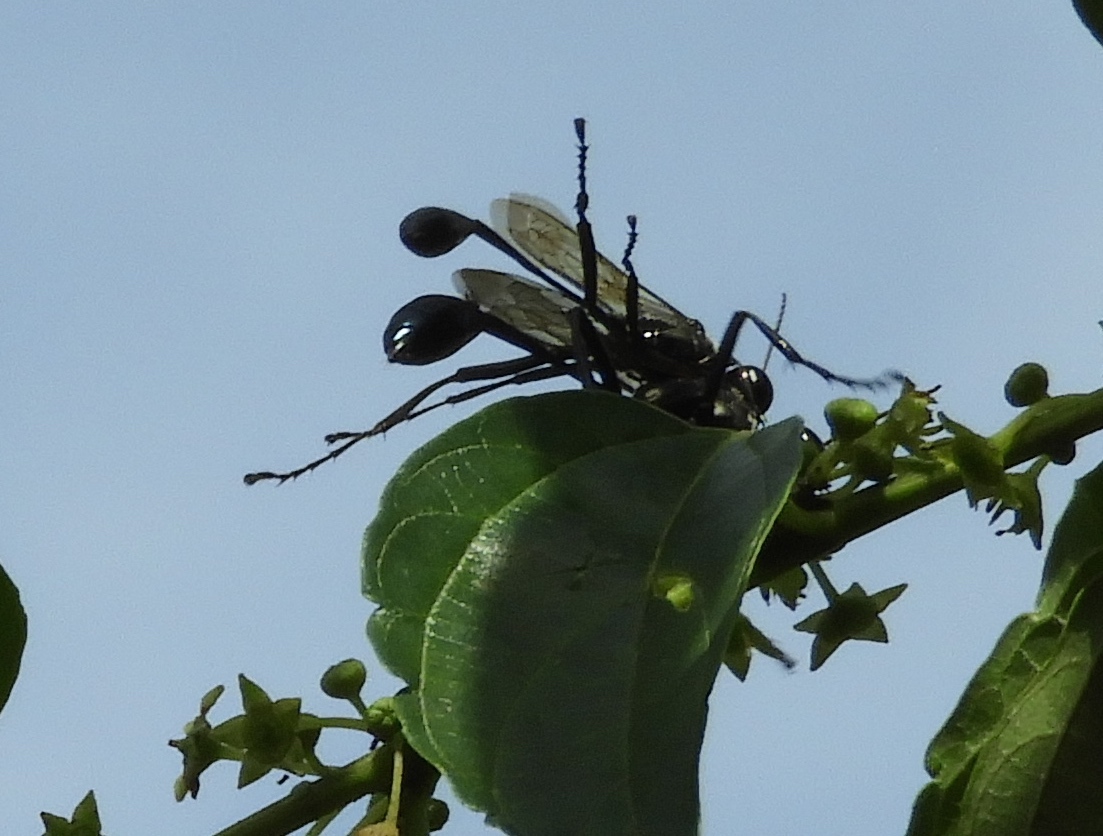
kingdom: Animalia
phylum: Arthropoda
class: Insecta
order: Hymenoptera
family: Sphecidae
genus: Eremnophila
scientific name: Eremnophila
